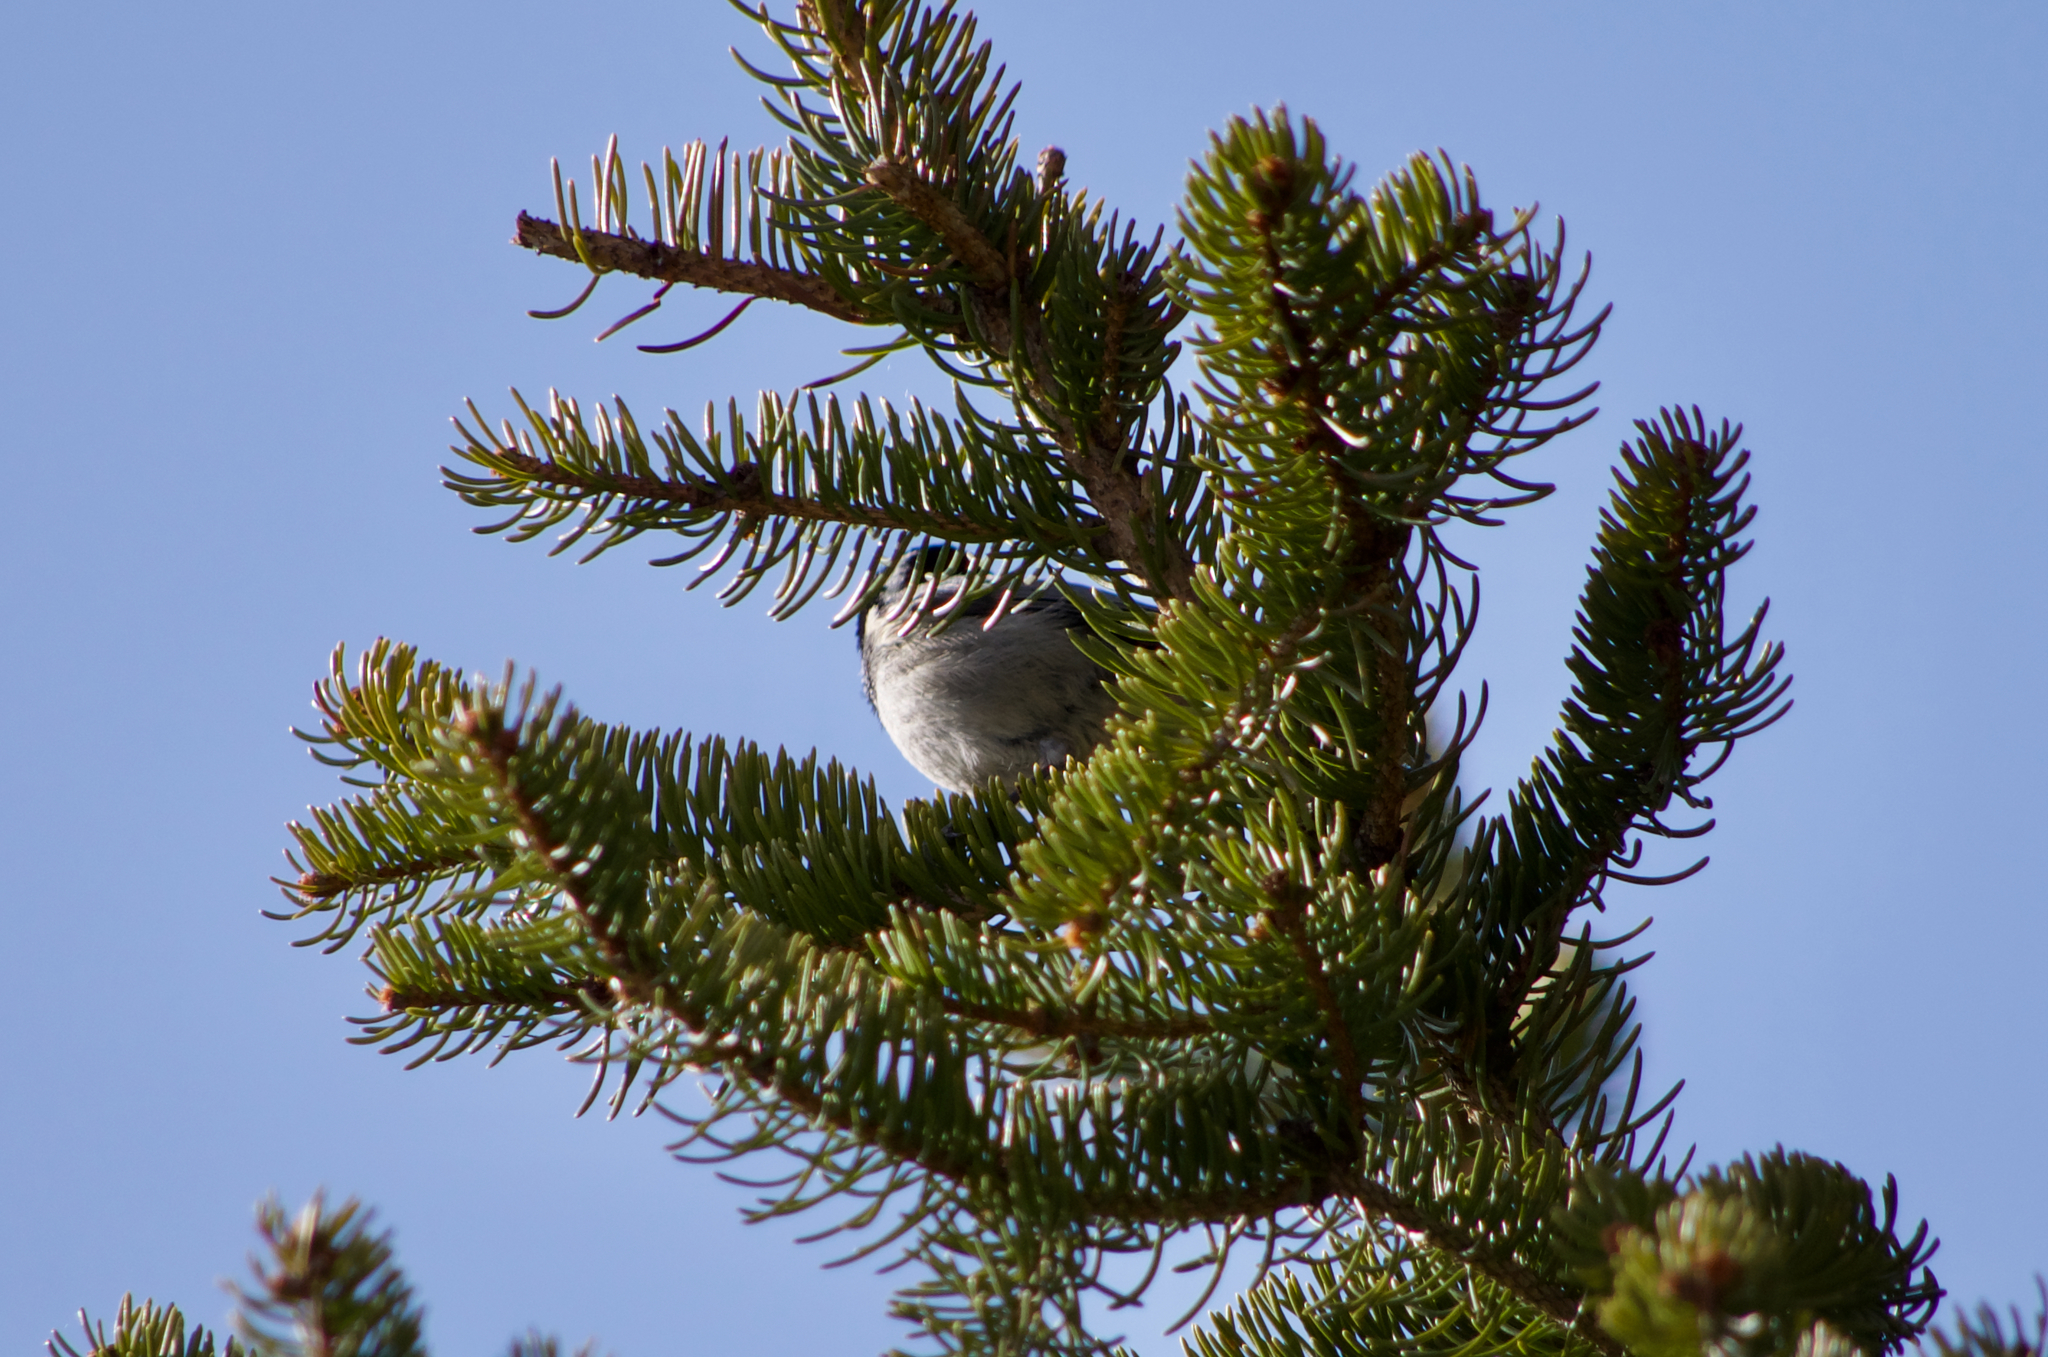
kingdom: Animalia
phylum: Chordata
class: Aves
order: Passeriformes
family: Paridae
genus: Periparus
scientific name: Periparus ater
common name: Coal tit
